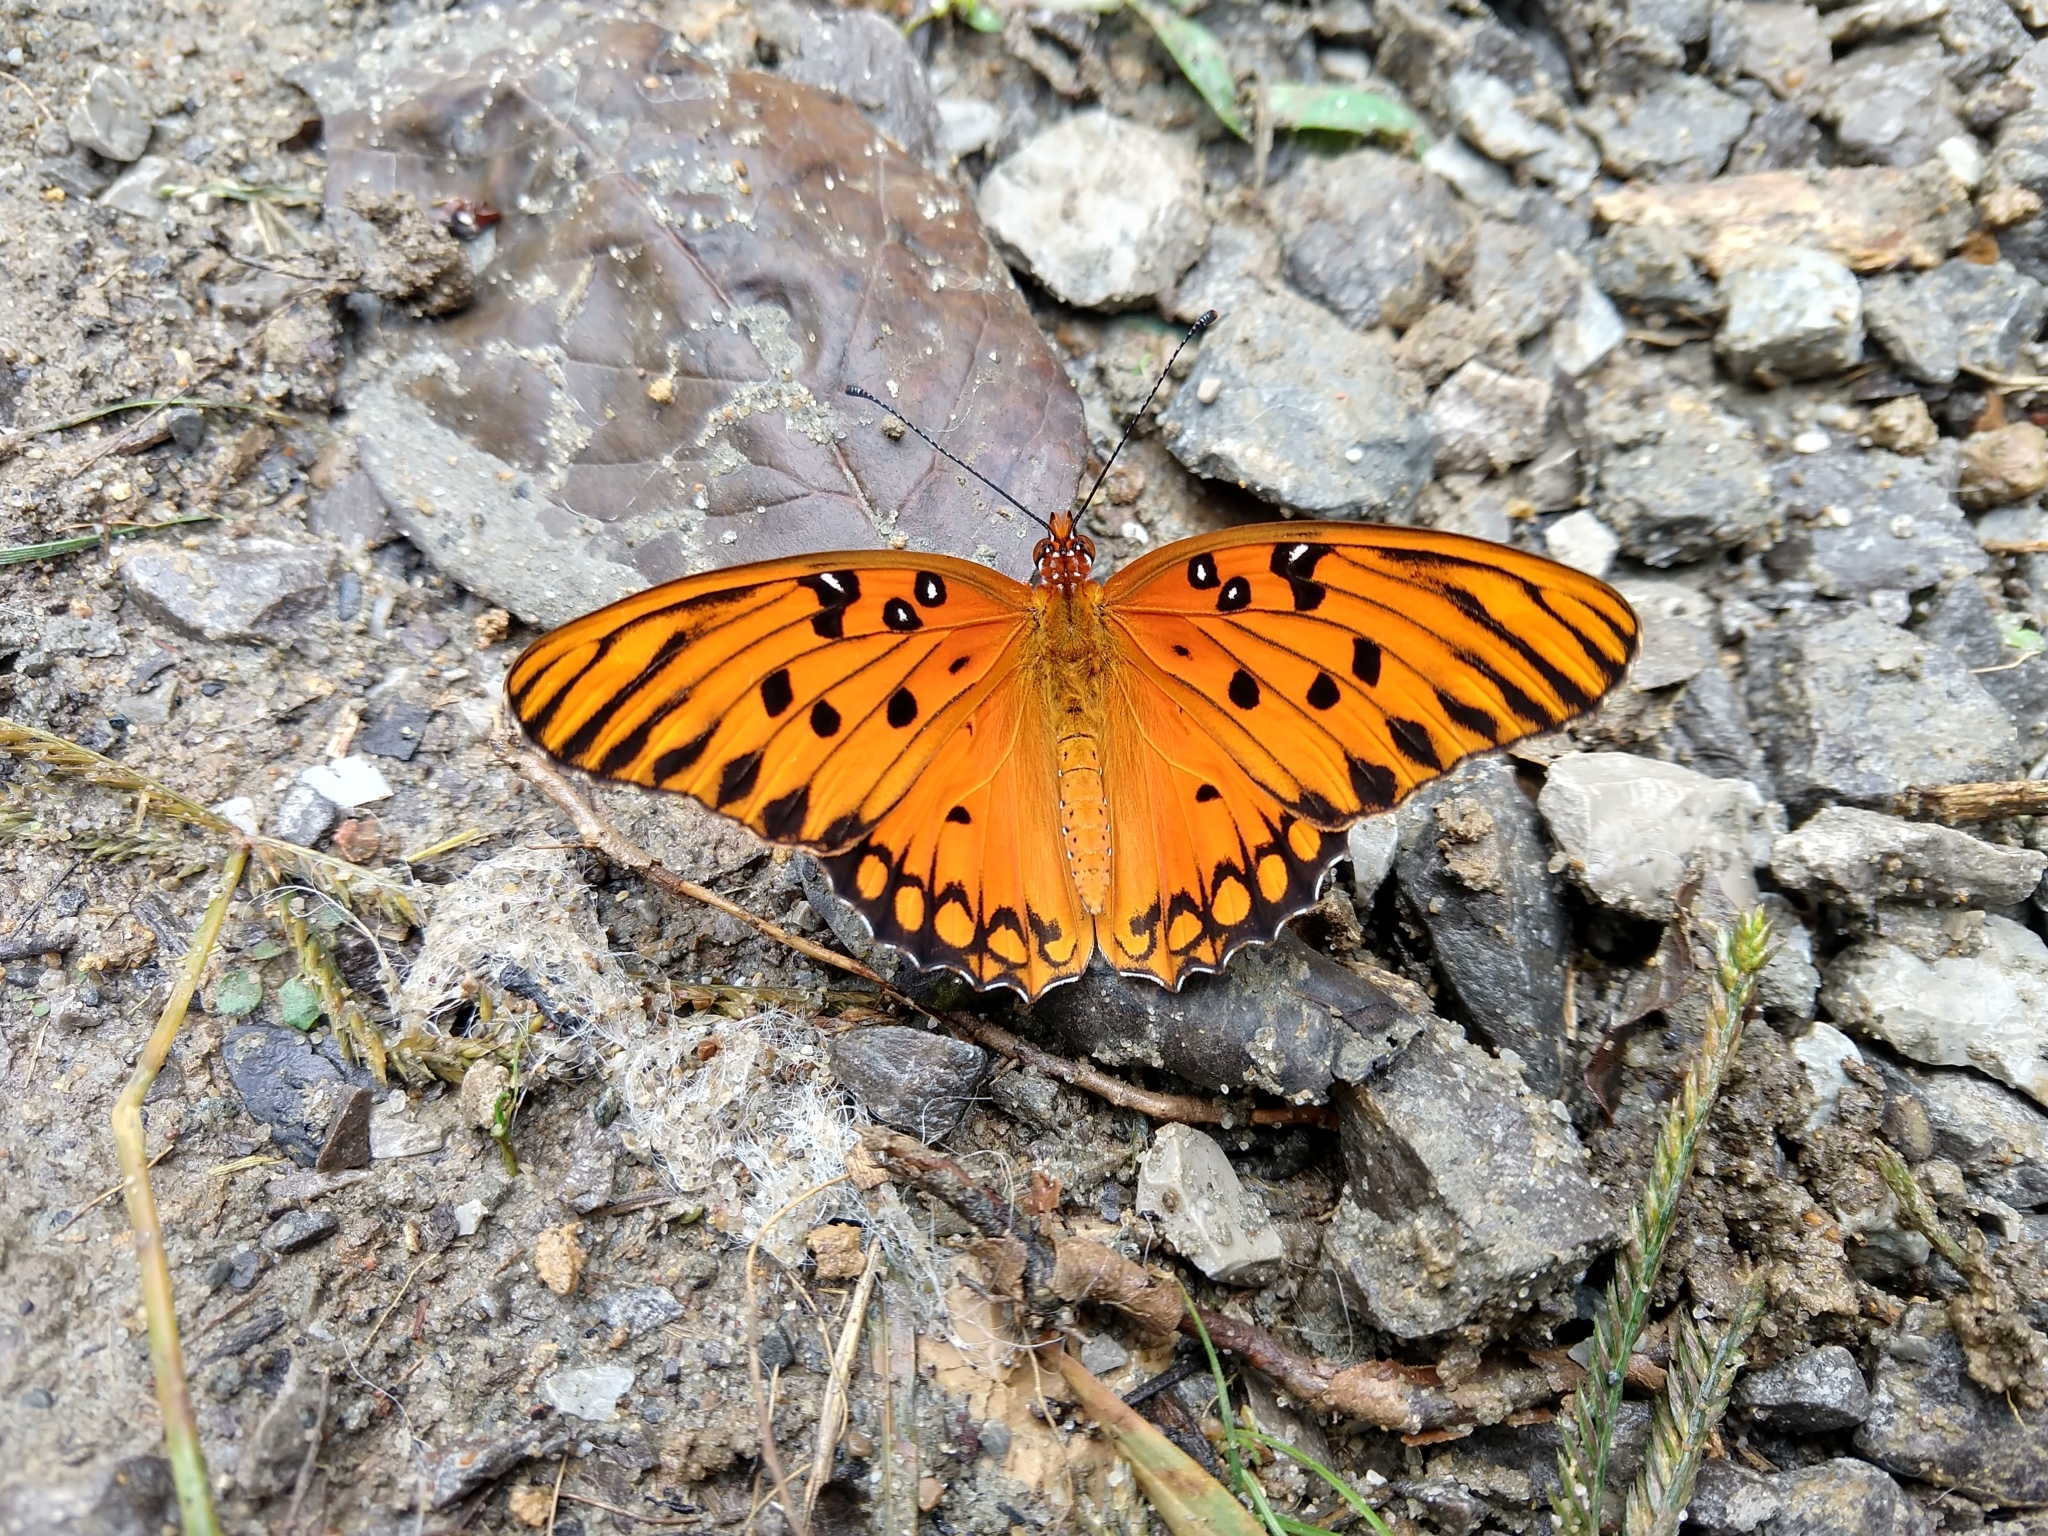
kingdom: Animalia
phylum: Arthropoda
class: Insecta
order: Lepidoptera
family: Nymphalidae
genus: Dione
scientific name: Dione vanillae
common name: Gulf fritillary
